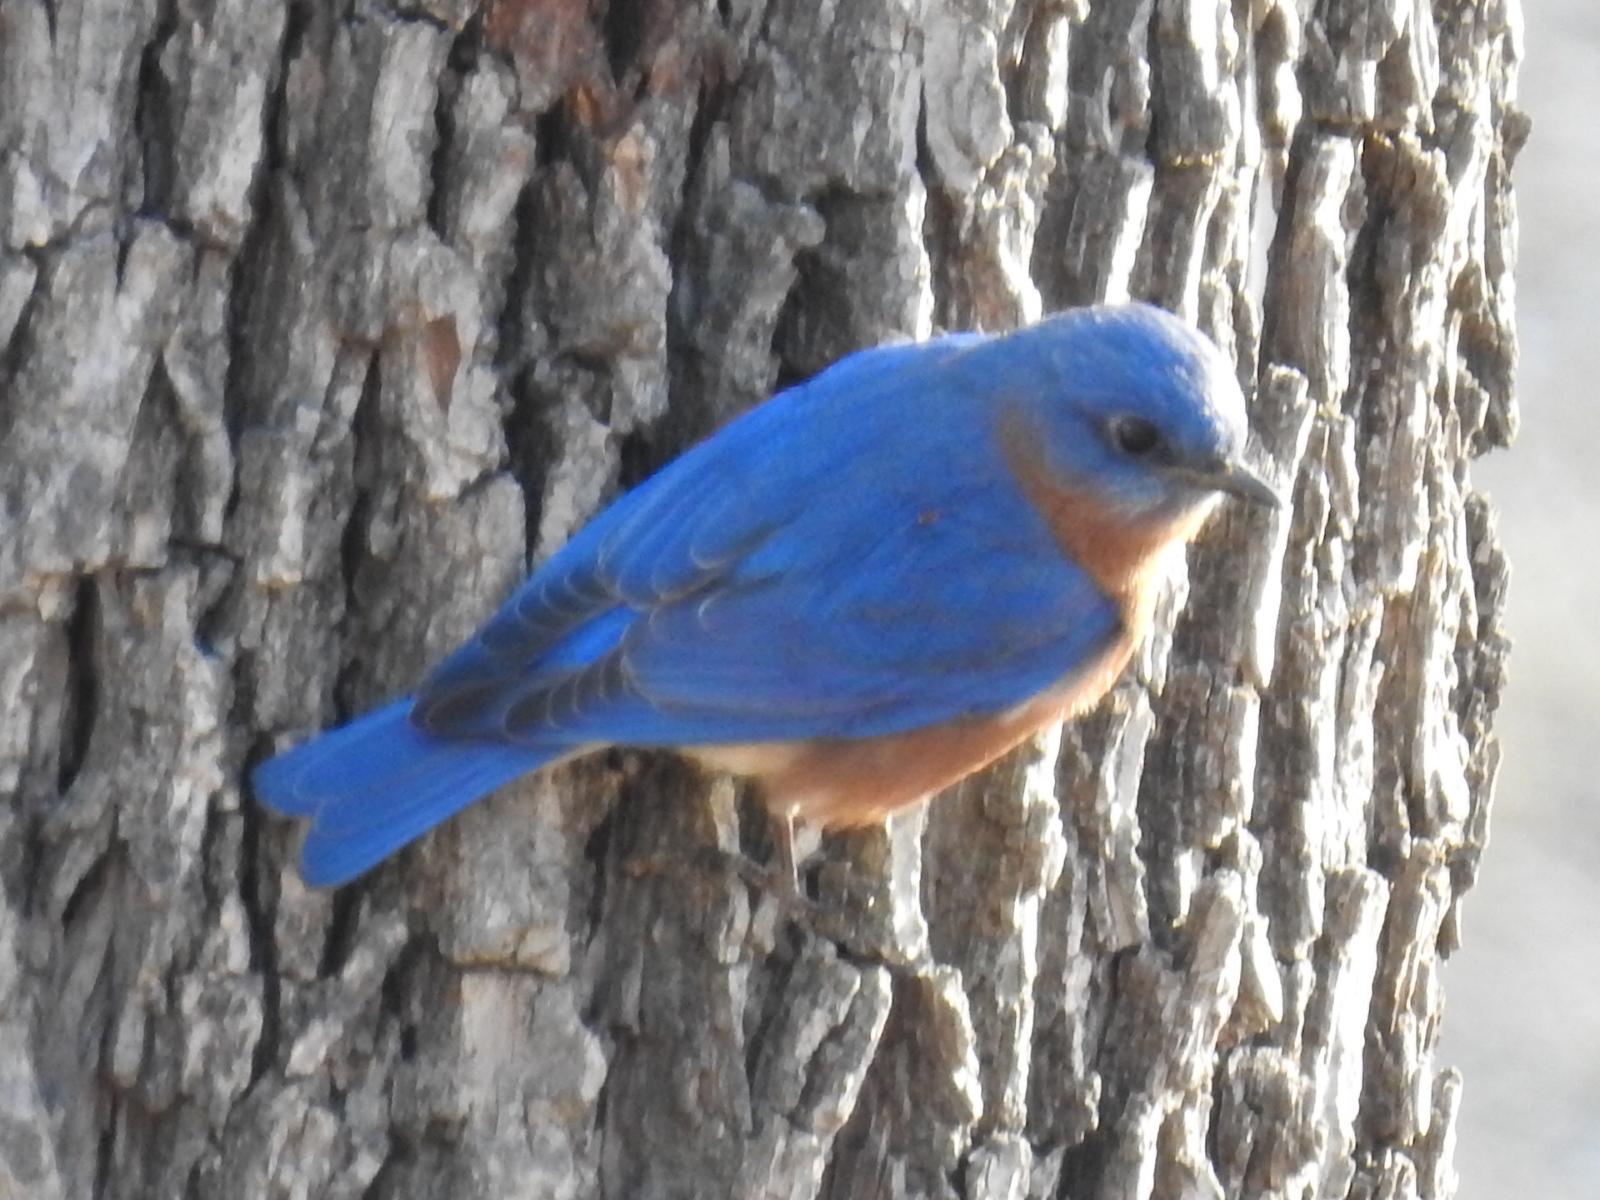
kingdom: Animalia
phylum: Chordata
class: Aves
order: Passeriformes
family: Turdidae
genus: Sialia
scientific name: Sialia sialis
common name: Eastern bluebird
